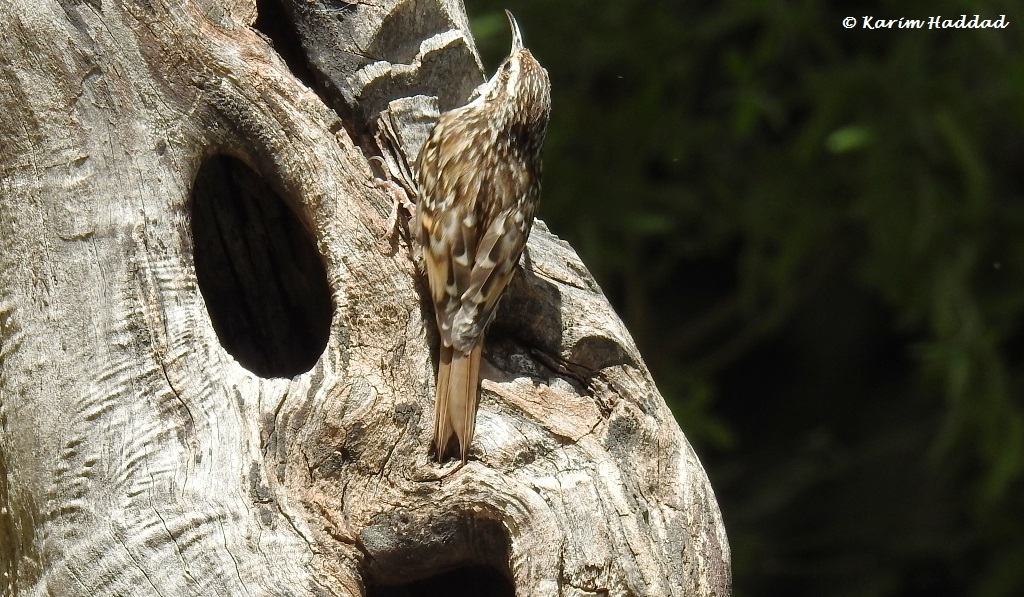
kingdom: Animalia
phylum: Chordata
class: Aves
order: Passeriformes
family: Certhiidae
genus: Certhia
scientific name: Certhia brachydactyla
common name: Short-toed treecreeper
